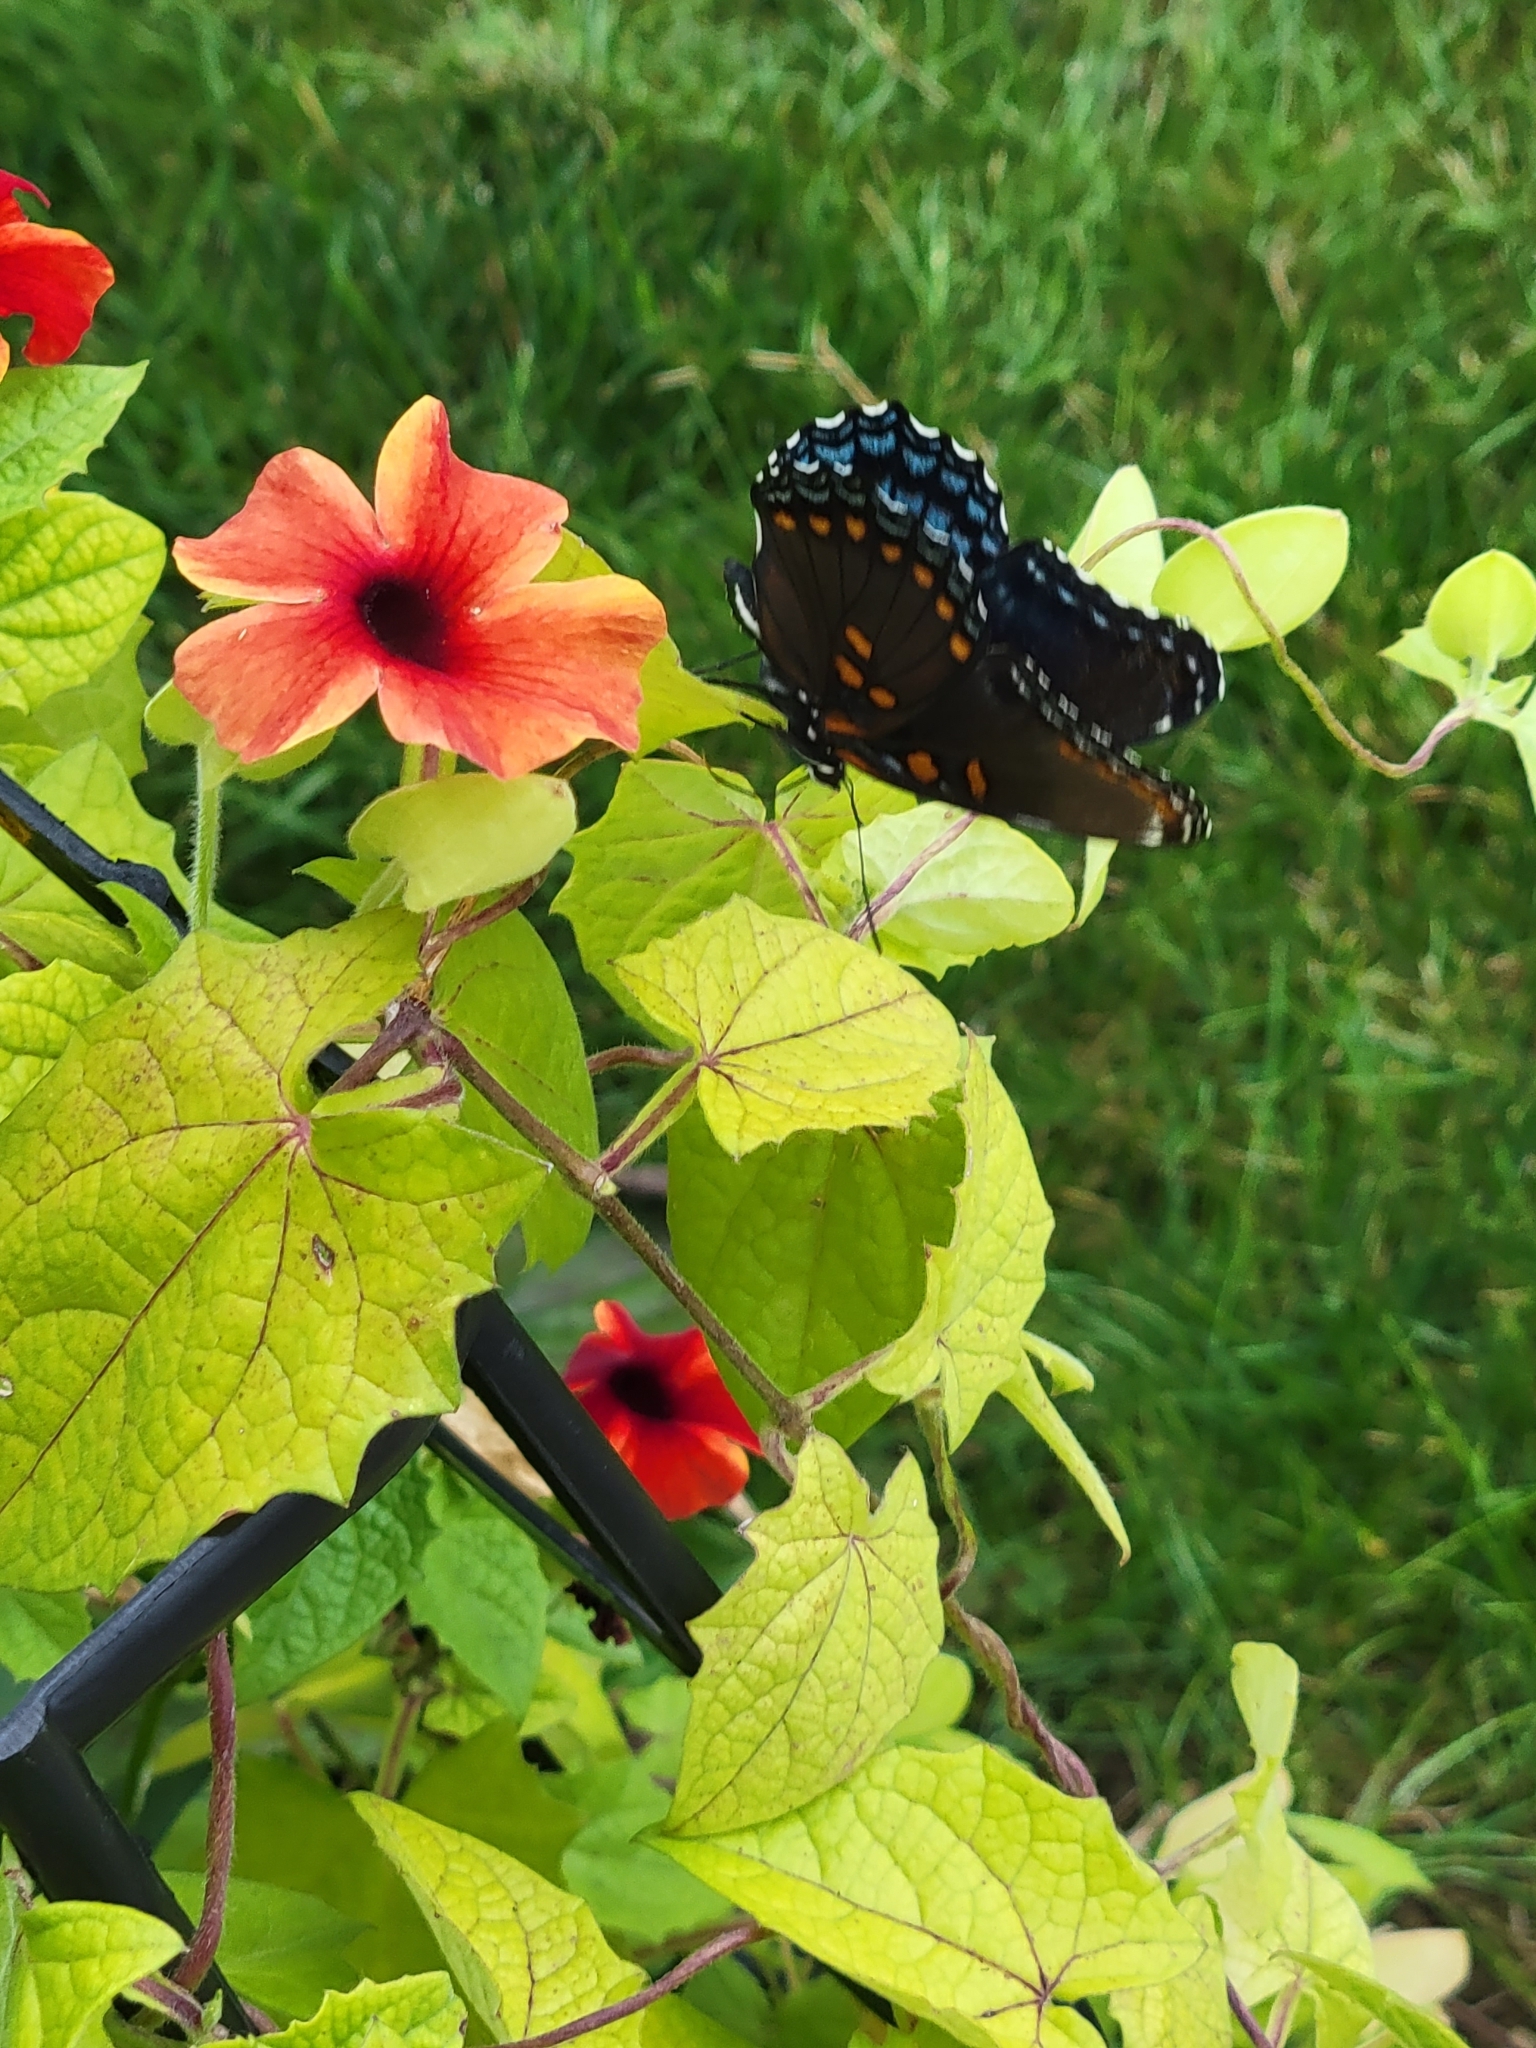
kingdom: Animalia
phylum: Arthropoda
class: Insecta
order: Lepidoptera
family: Nymphalidae
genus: Limenitis
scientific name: Limenitis arthemis
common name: Red-spotted admiral
